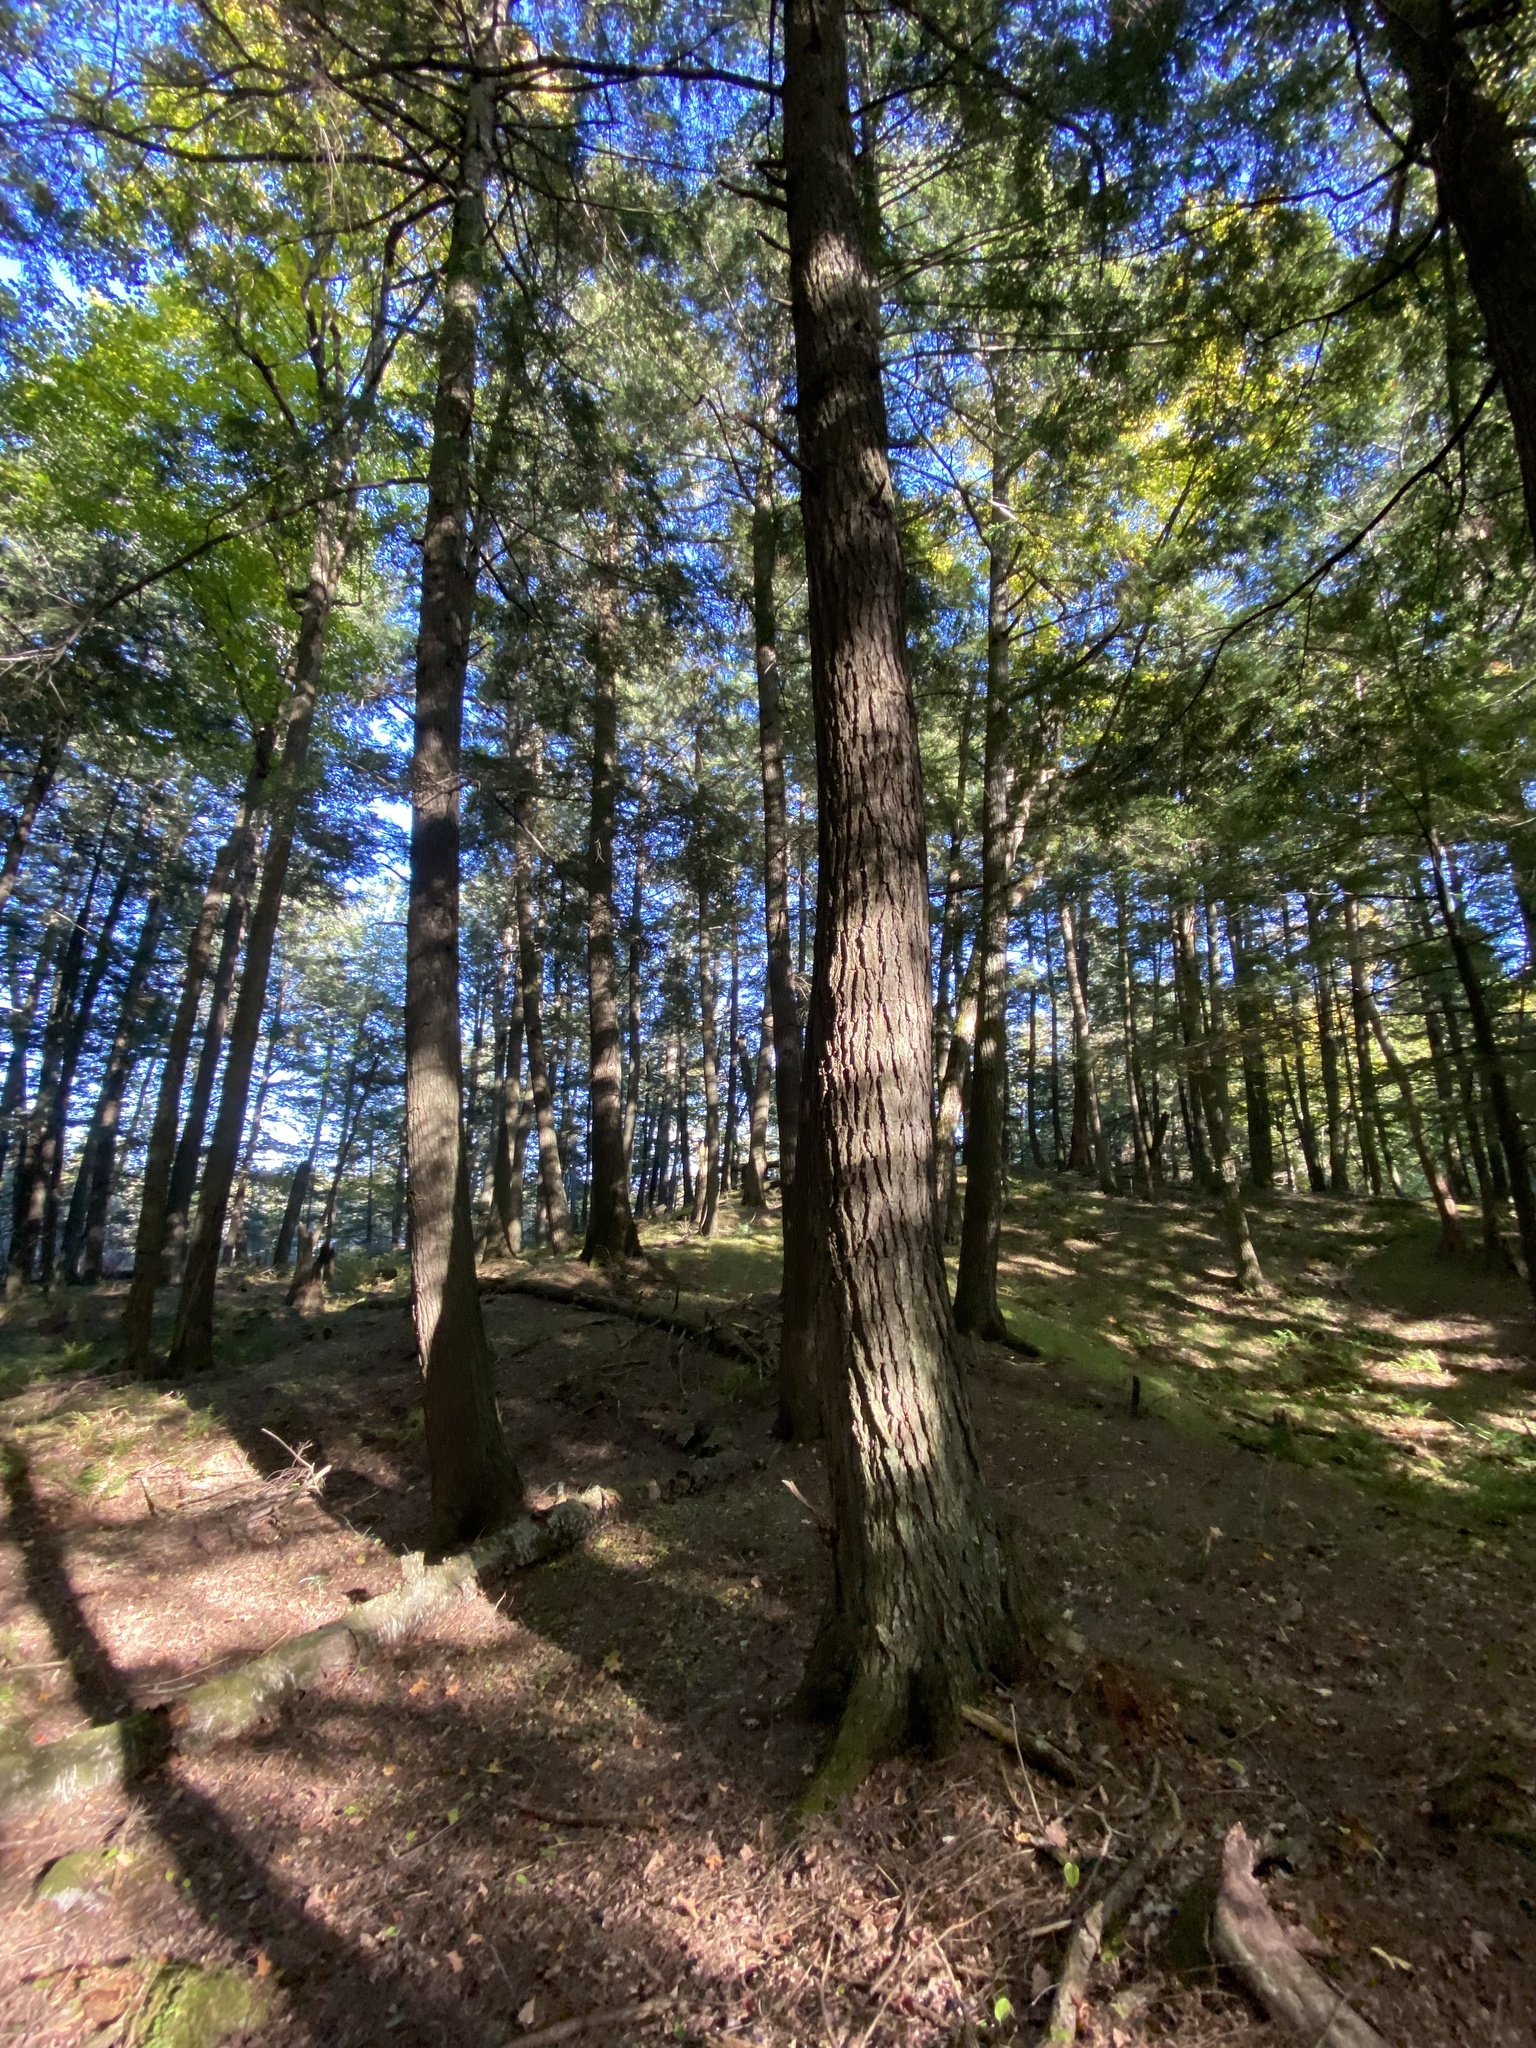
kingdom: Plantae
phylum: Tracheophyta
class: Pinopsida
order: Pinales
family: Pinaceae
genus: Tsuga
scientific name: Tsuga canadensis
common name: Eastern hemlock
